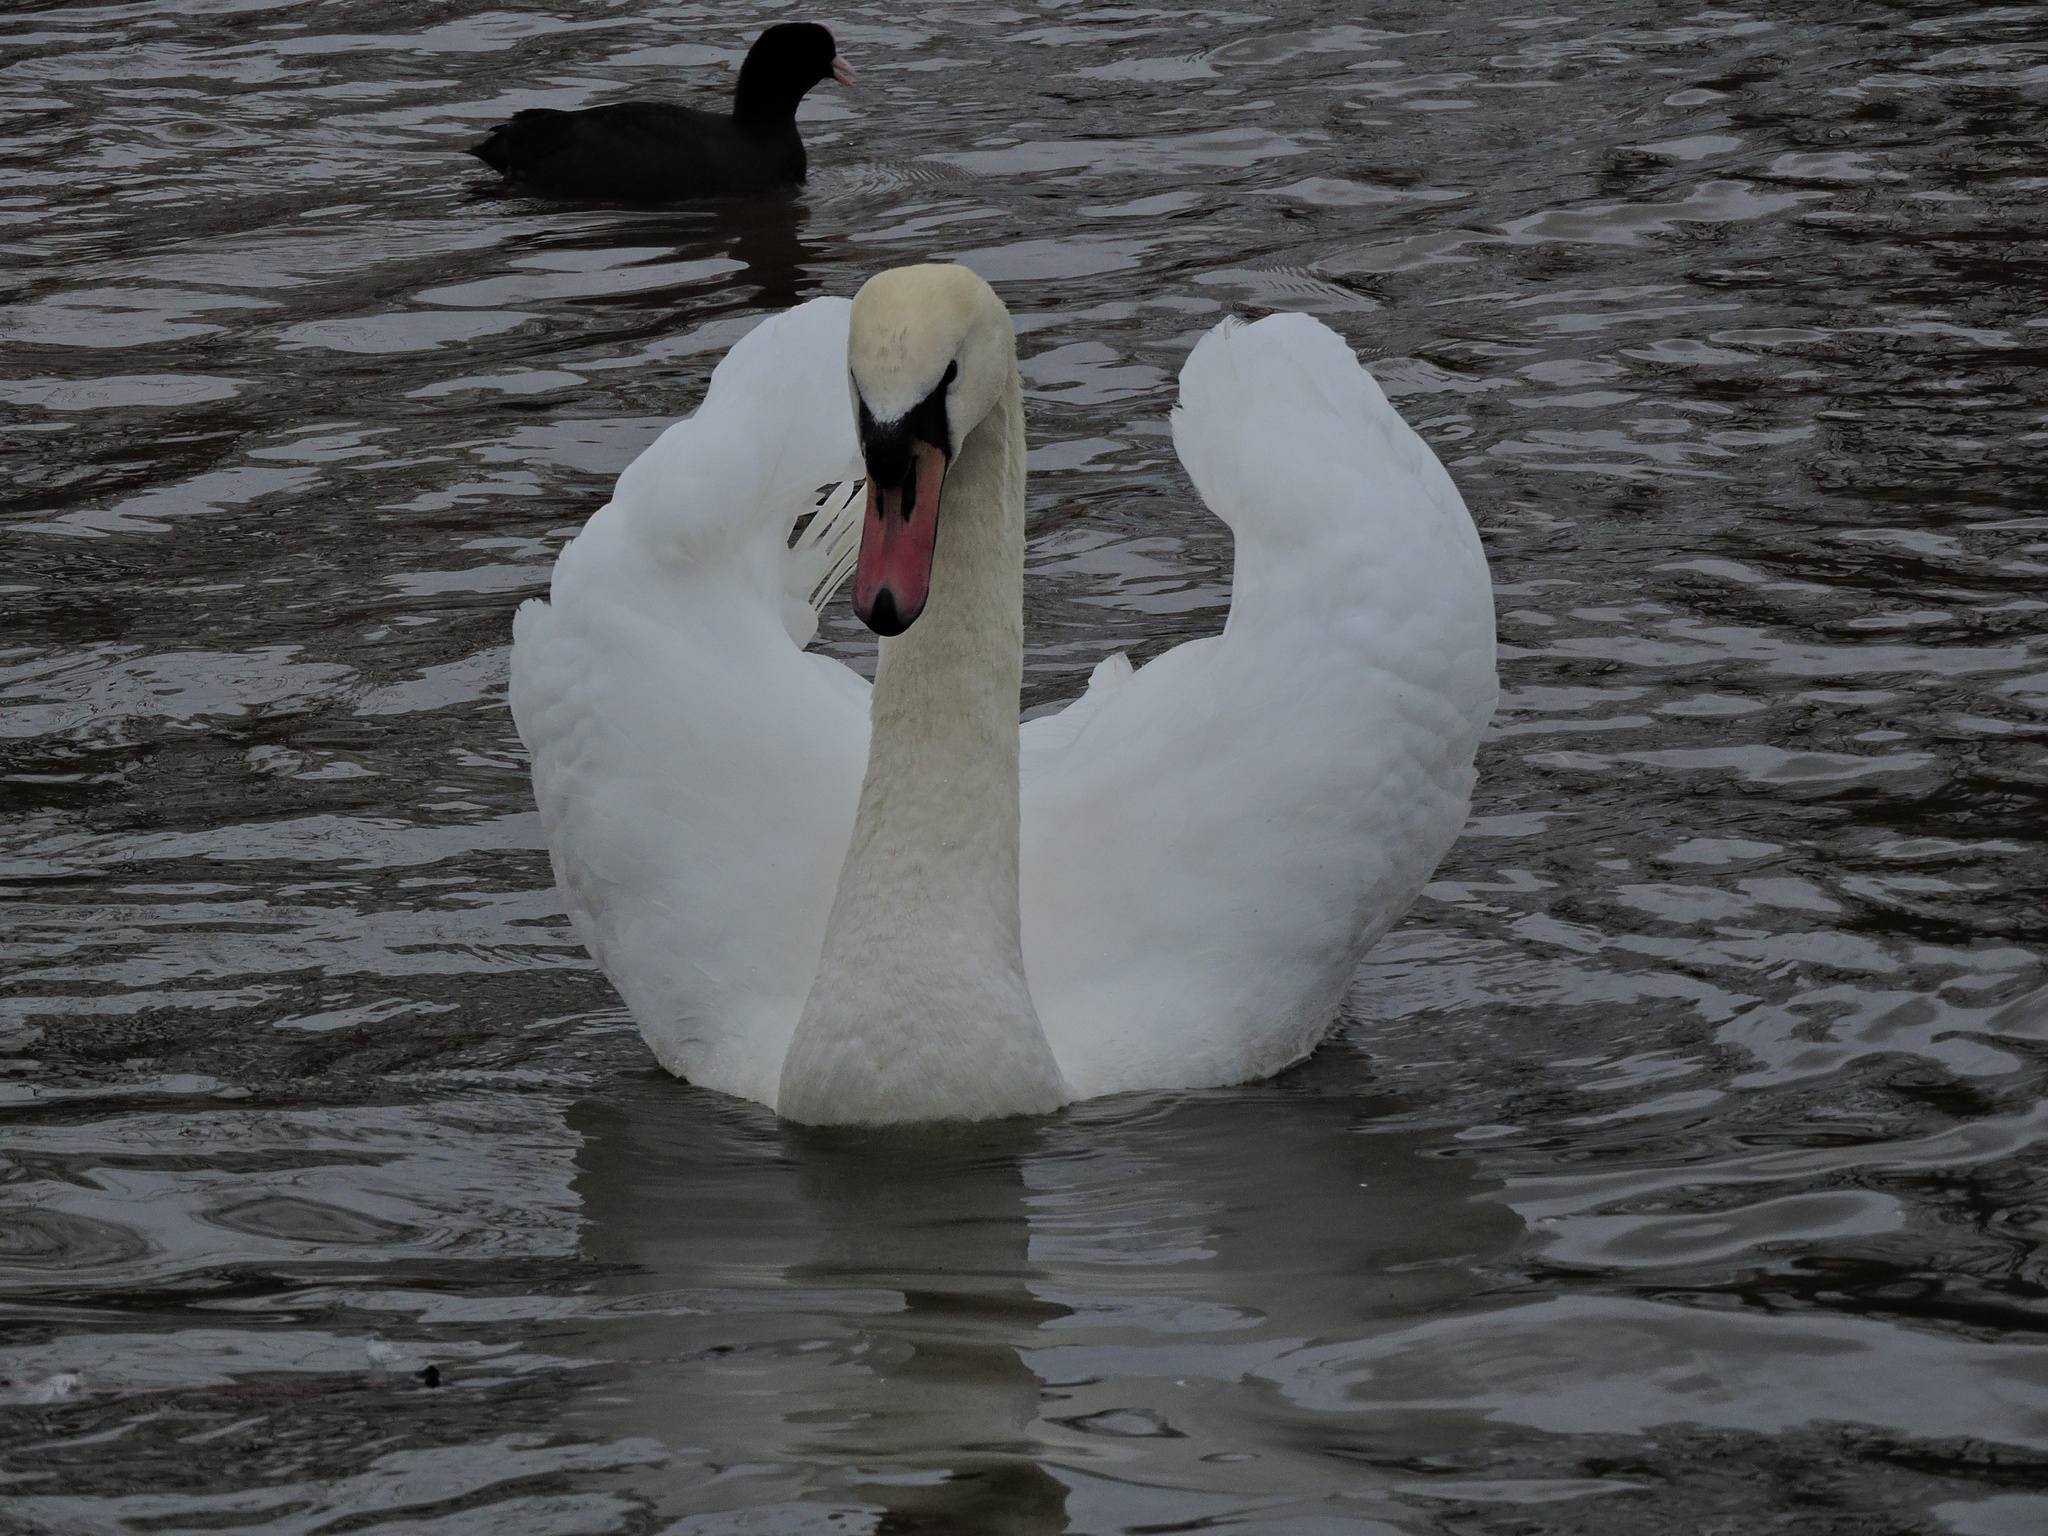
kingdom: Animalia
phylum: Chordata
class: Aves
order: Anseriformes
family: Anatidae
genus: Cygnus
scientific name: Cygnus olor
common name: Mute swan
